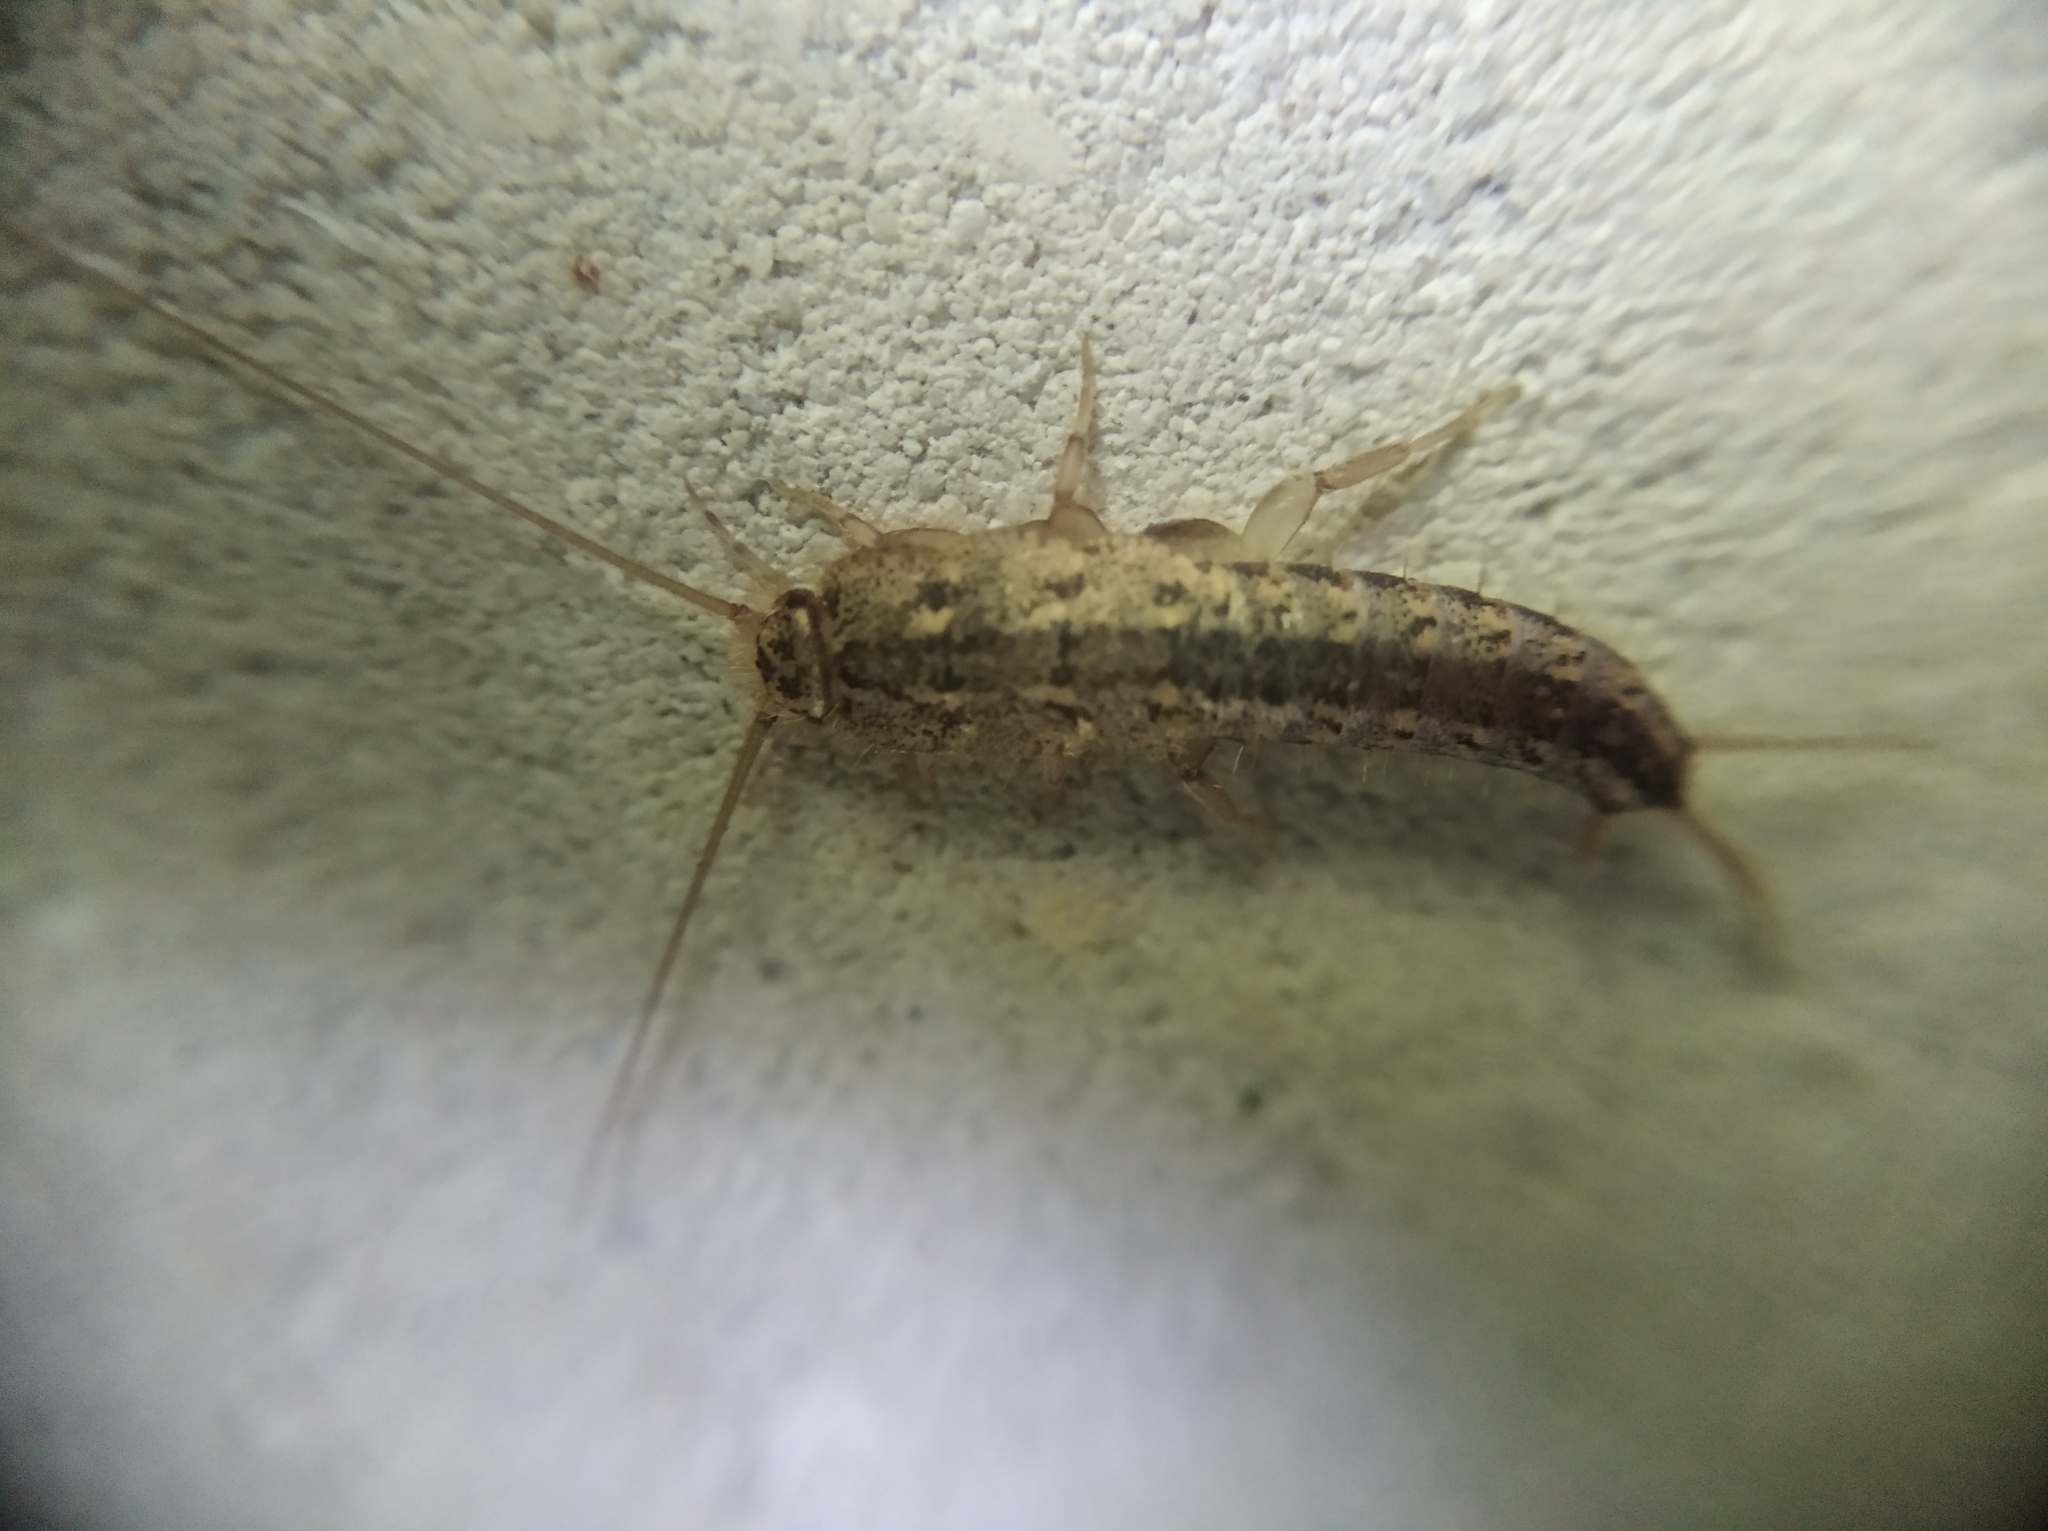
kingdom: Animalia
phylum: Arthropoda
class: Insecta
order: Zygentoma
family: Lepismatidae
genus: Ctenolepisma
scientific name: Ctenolepisma lineata
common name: Four-lined silverfish
